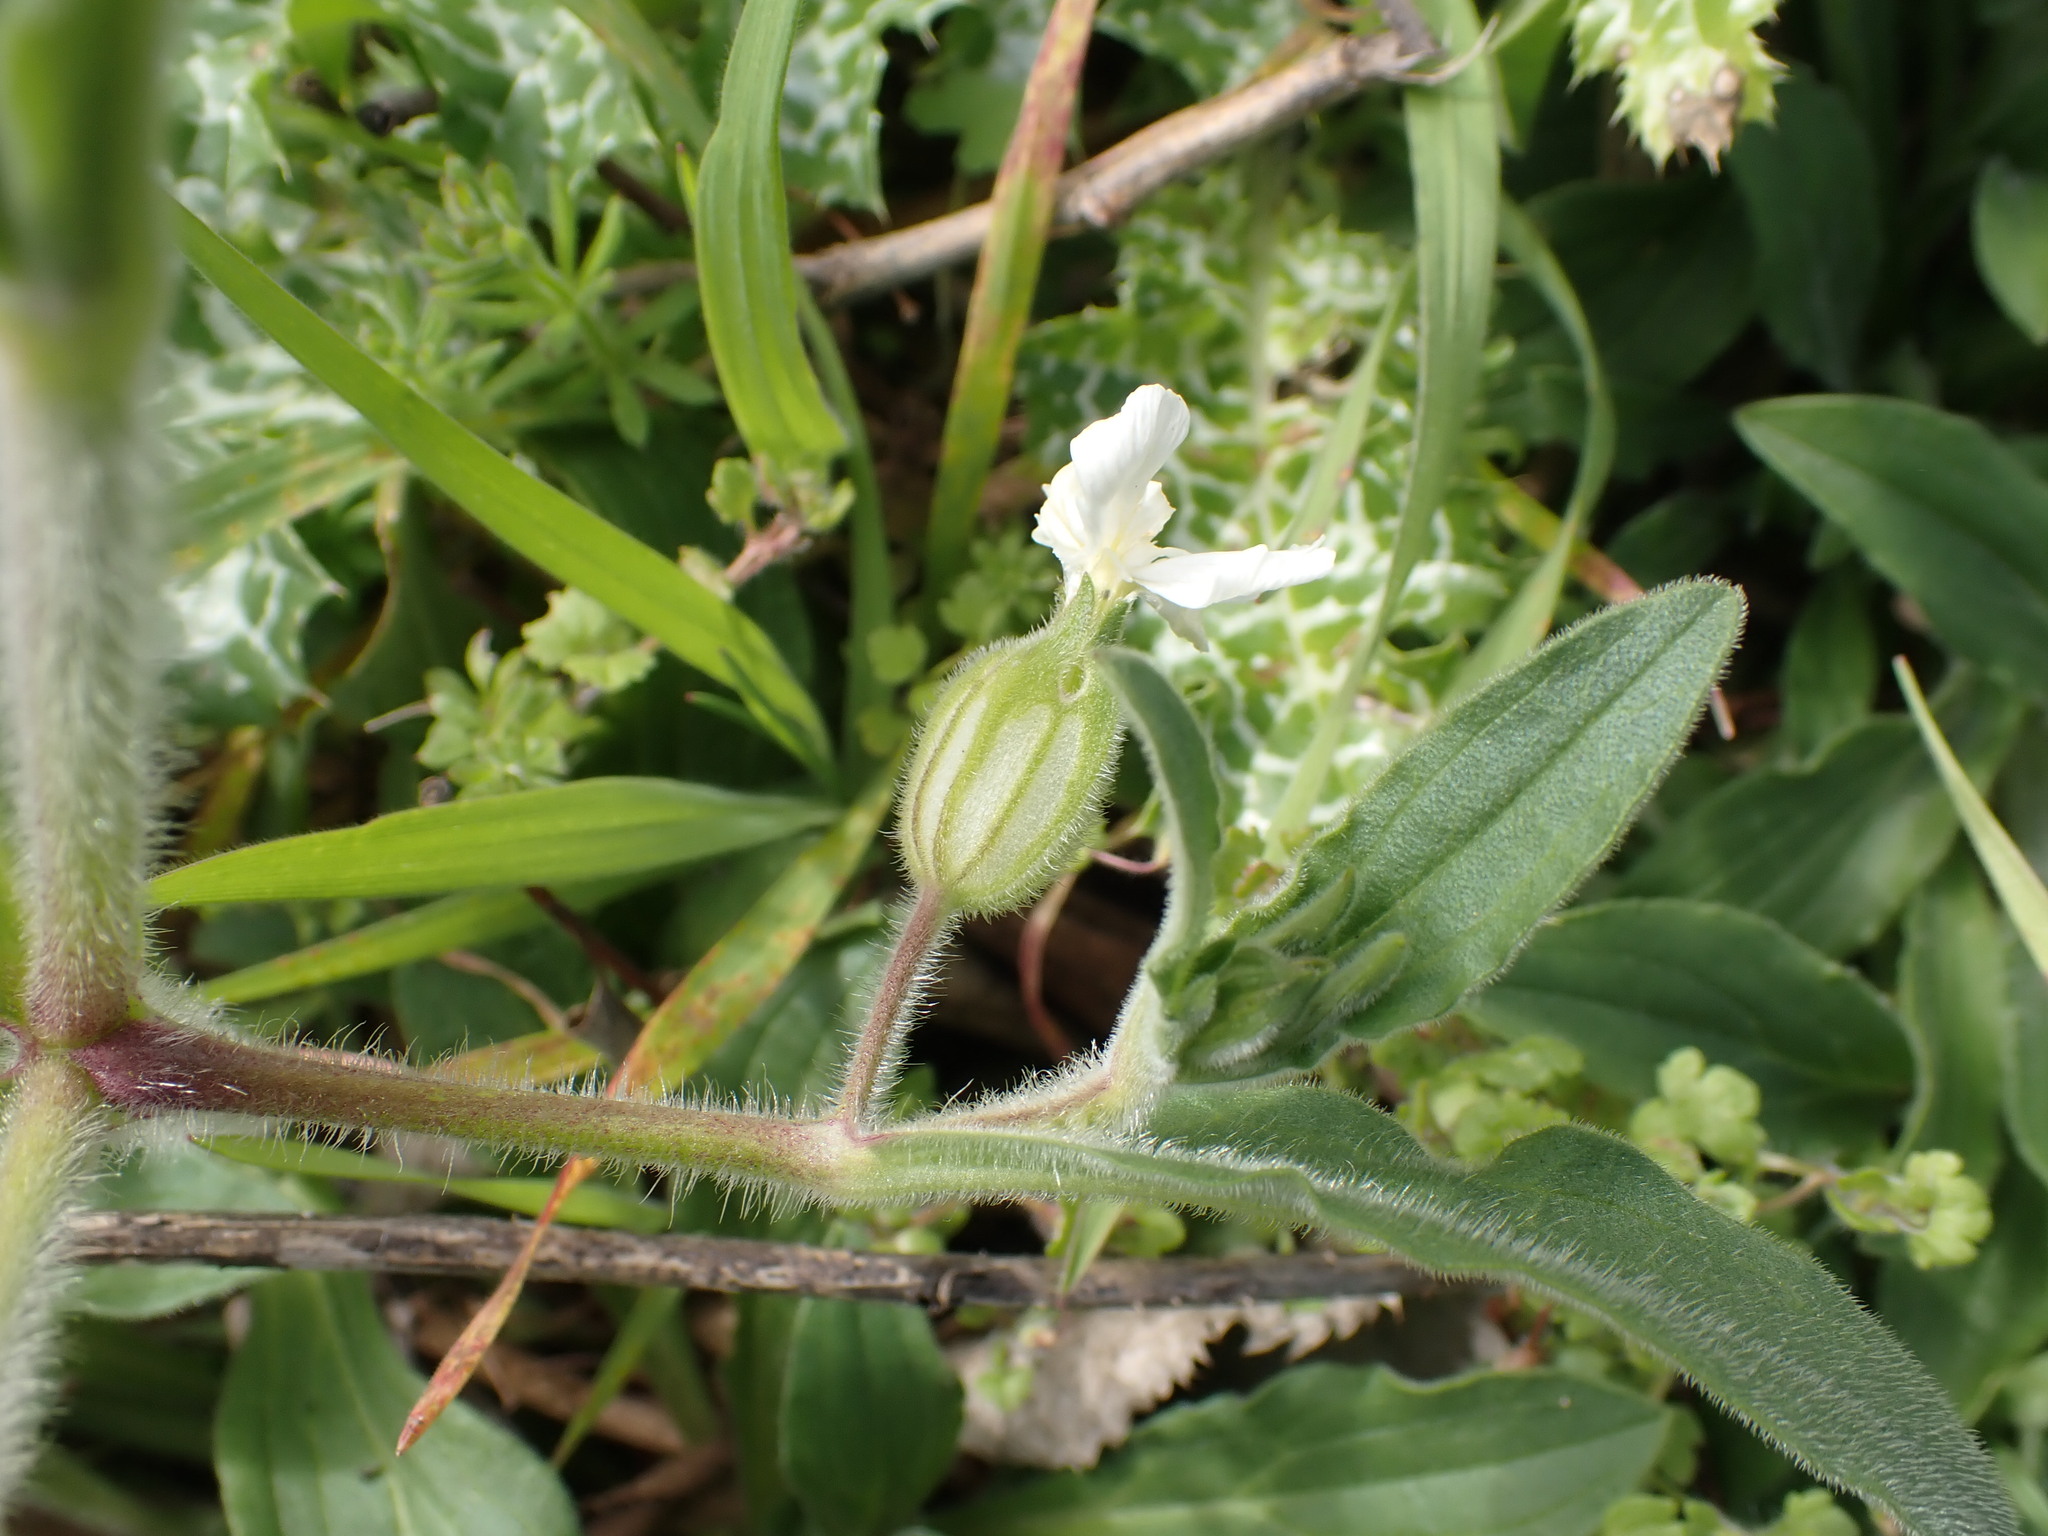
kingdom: Plantae
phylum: Tracheophyta
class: Magnoliopsida
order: Caryophyllales
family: Caryophyllaceae
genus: Silene
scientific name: Silene latifolia
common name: White campion
